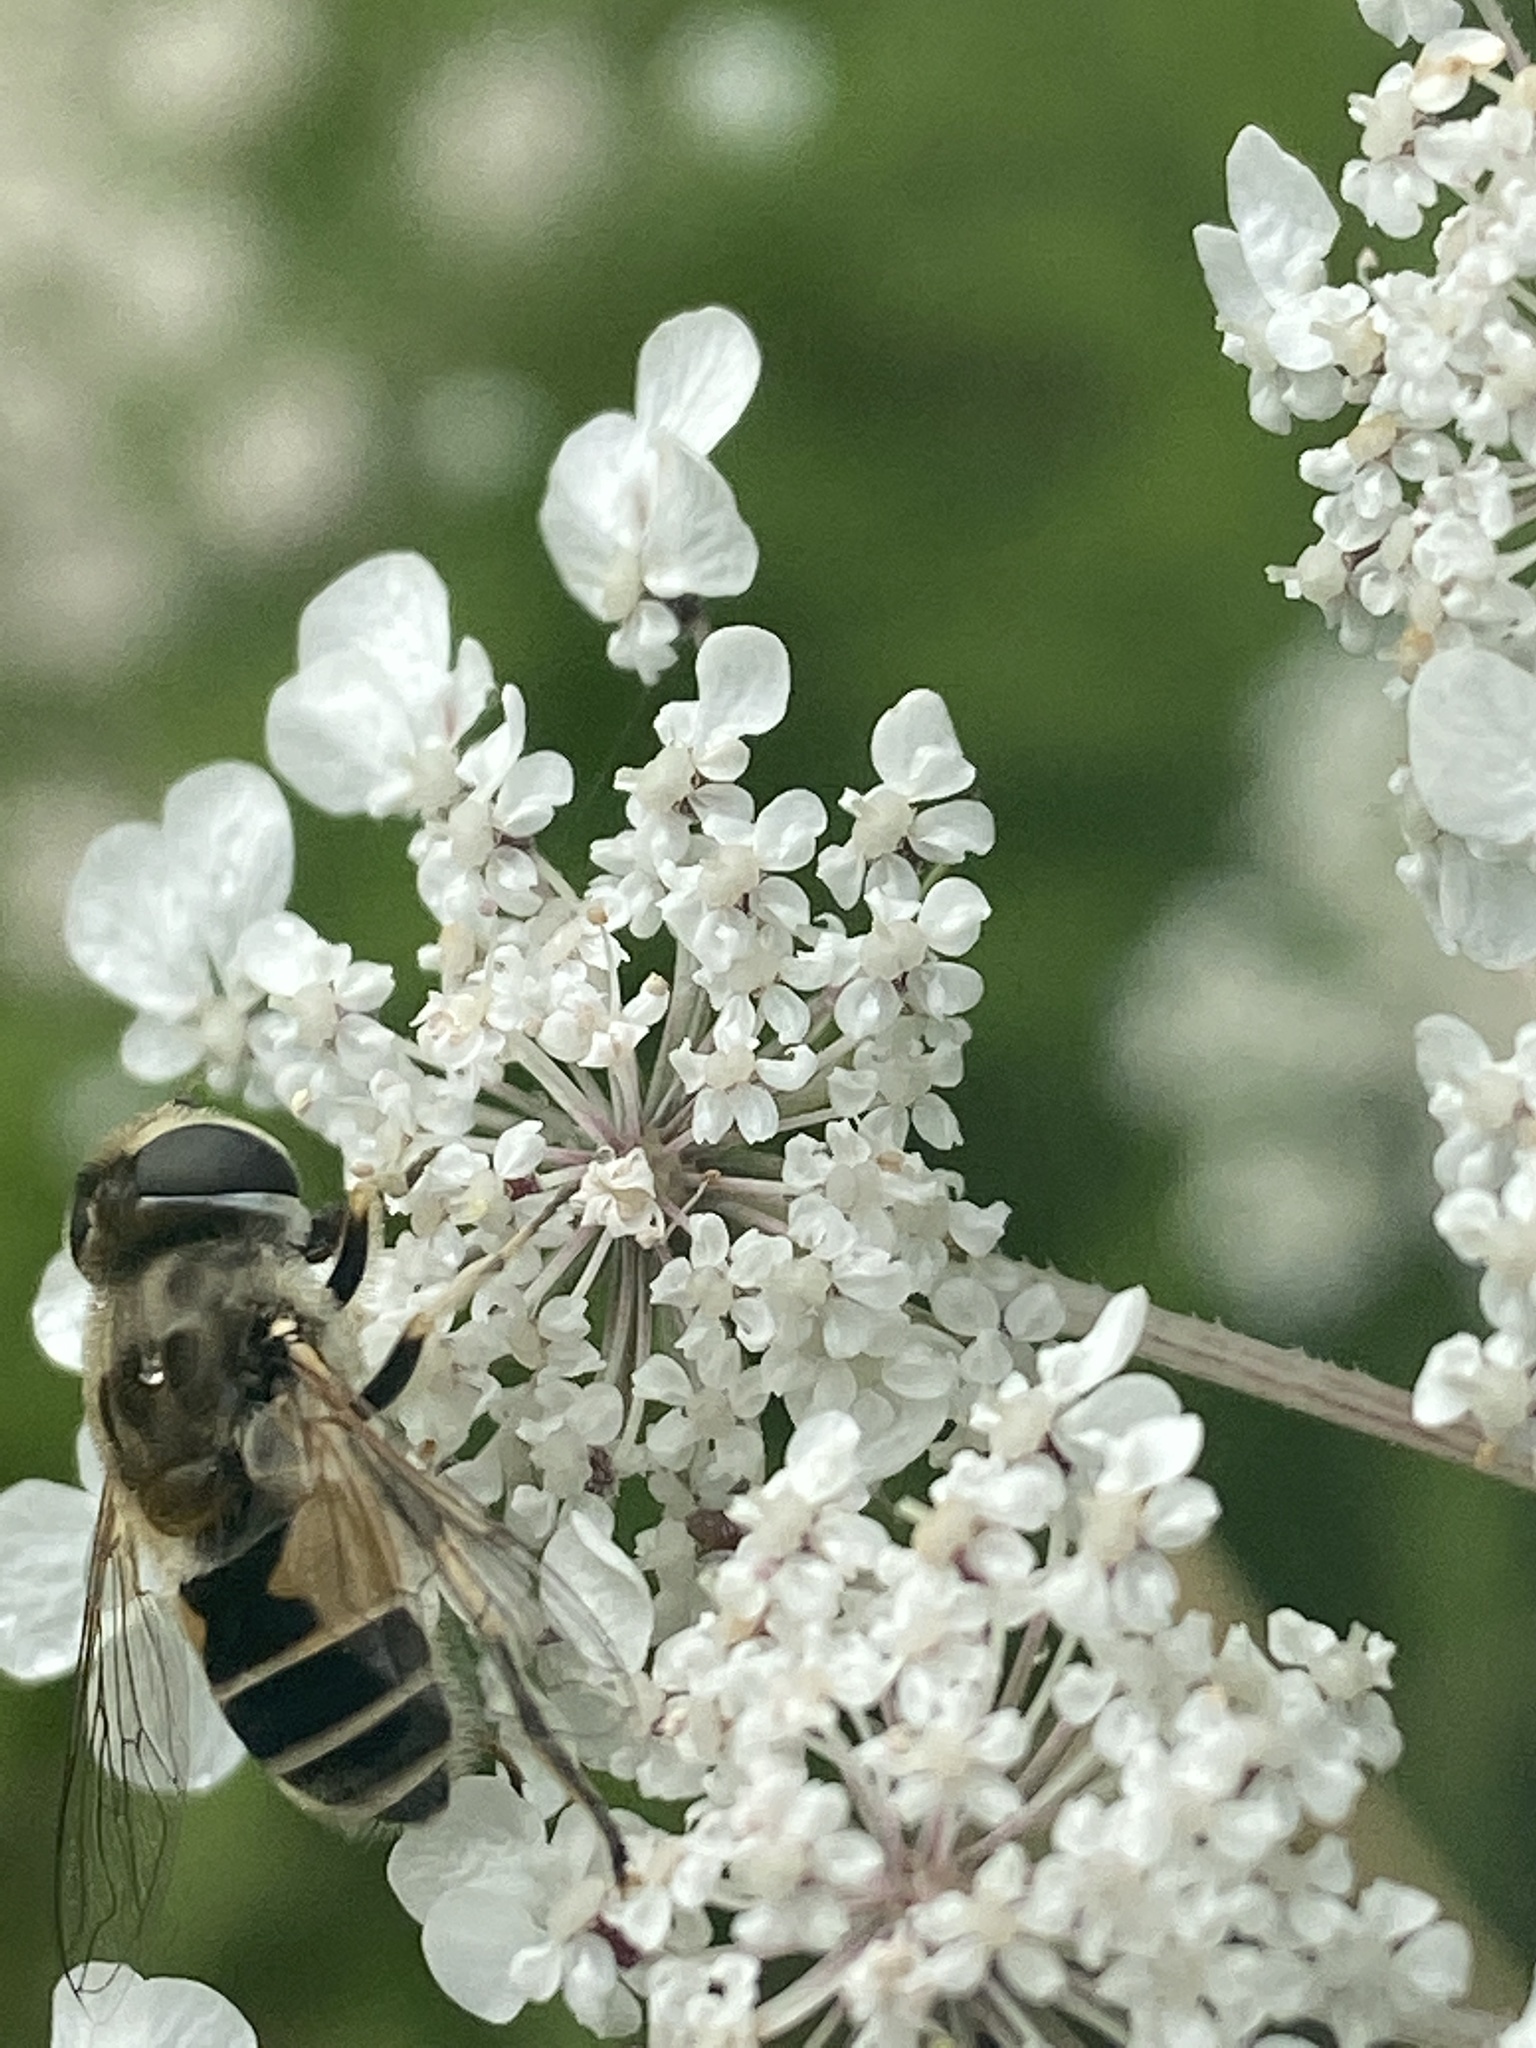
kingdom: Animalia
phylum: Arthropoda
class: Insecta
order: Diptera
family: Syrphidae
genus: Eristalis
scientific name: Eristalis arbustorum
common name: Hover fly
